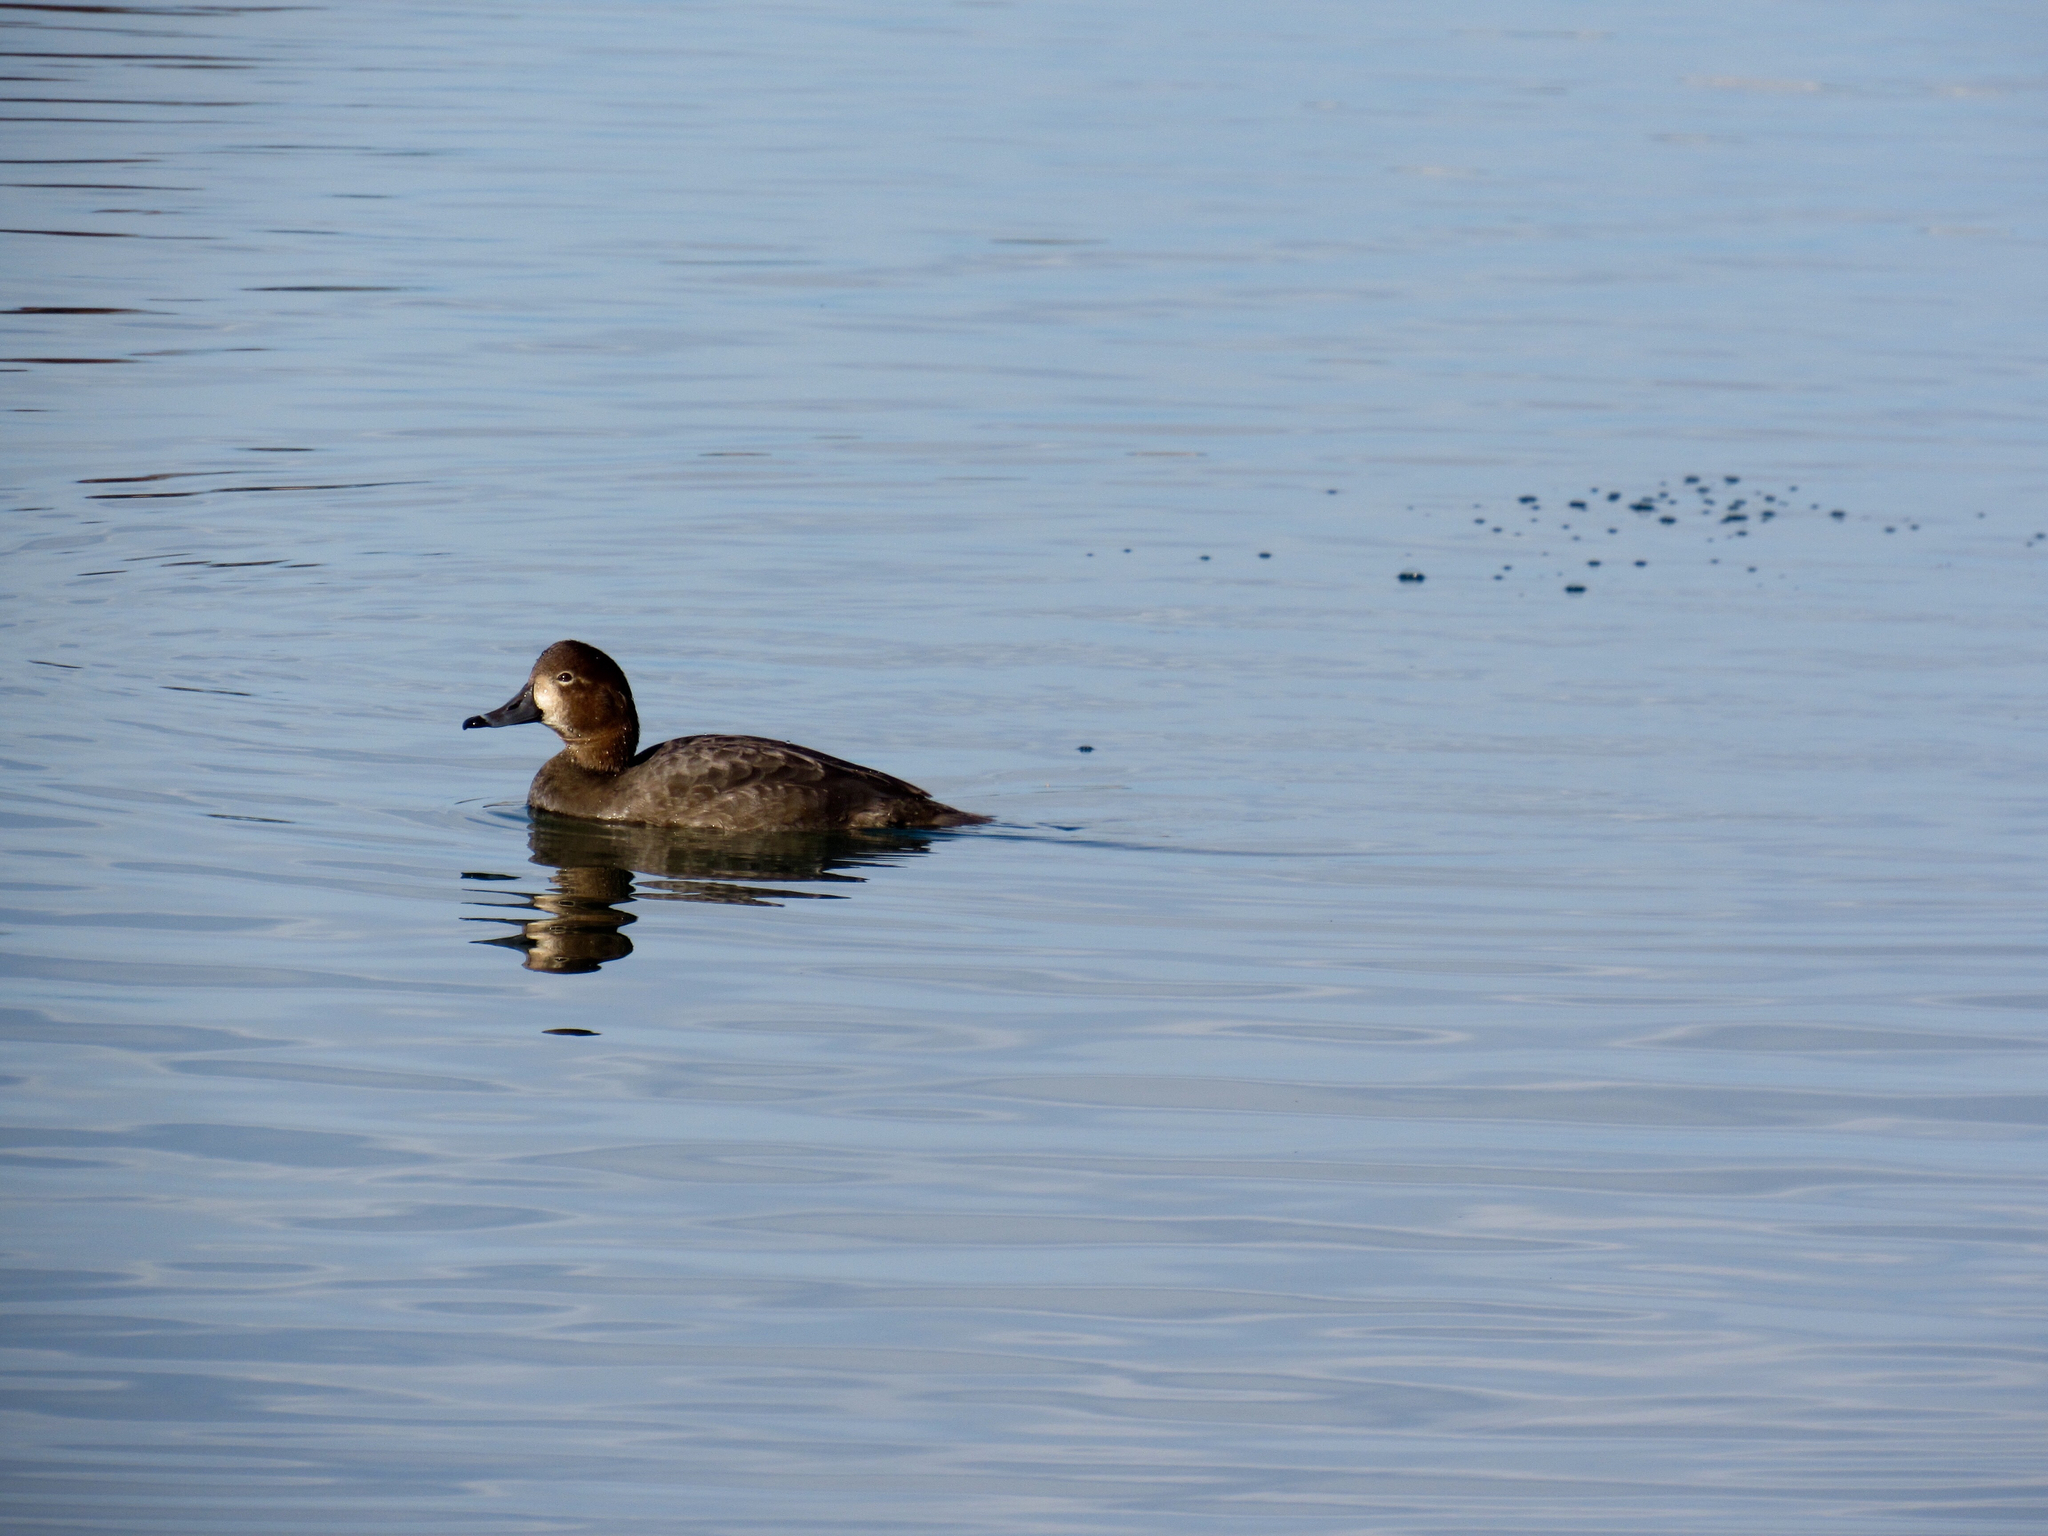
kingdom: Animalia
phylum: Chordata
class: Aves
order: Anseriformes
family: Anatidae
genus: Aythya
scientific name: Aythya americana
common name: Redhead
